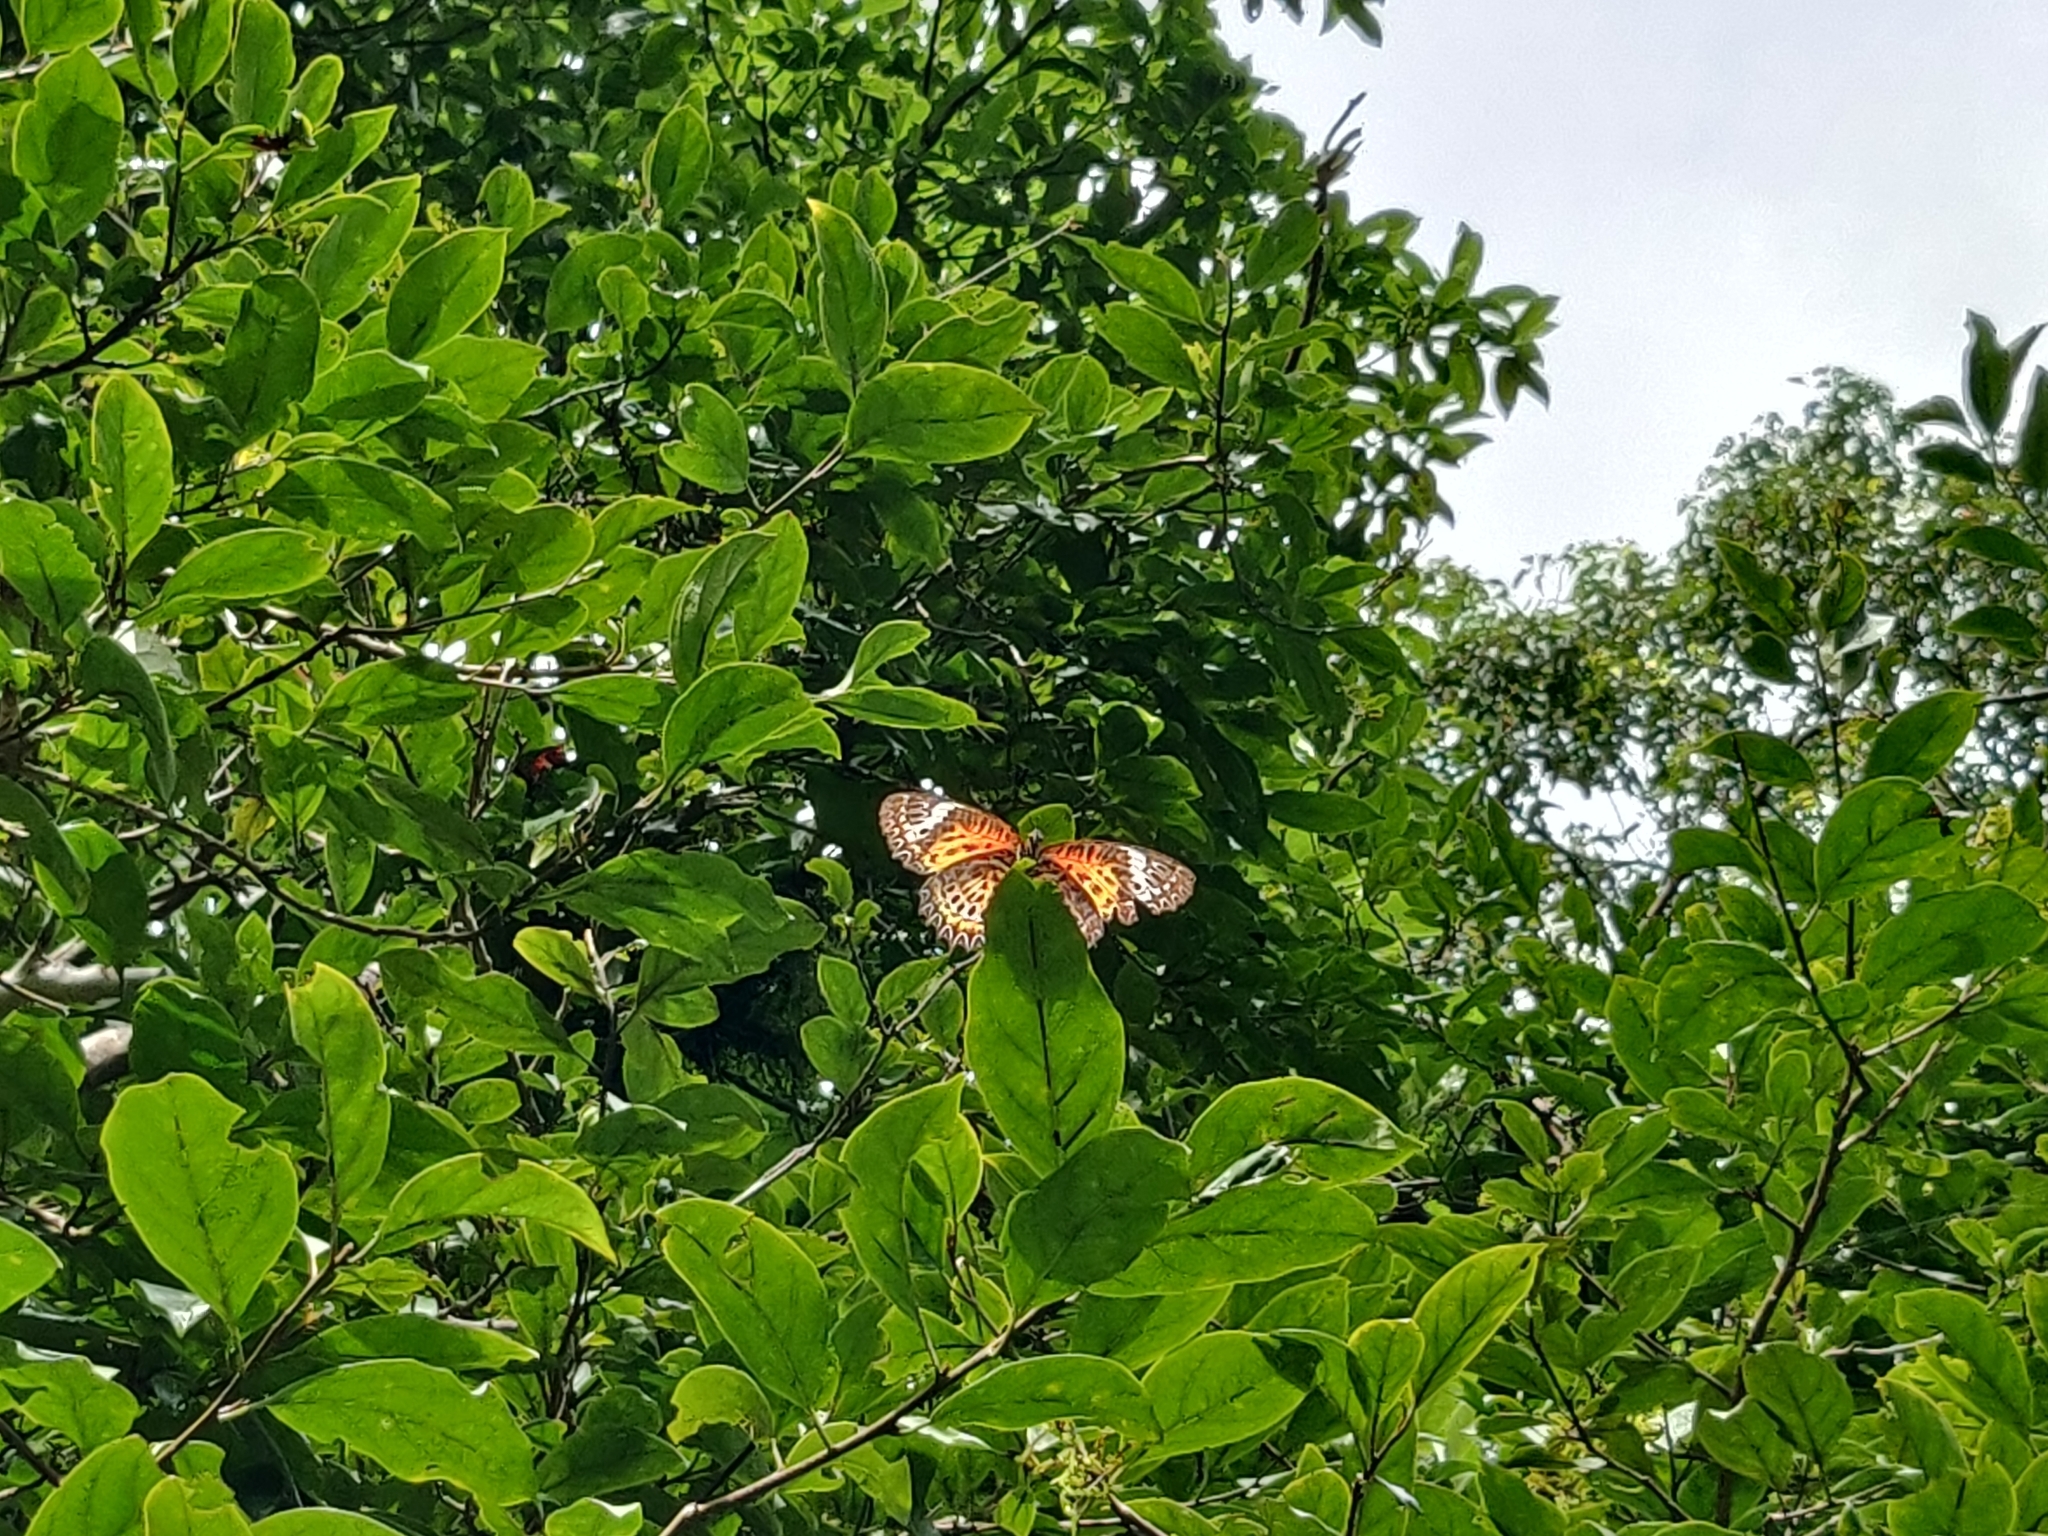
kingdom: Animalia
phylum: Arthropoda
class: Insecta
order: Lepidoptera
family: Nymphalidae
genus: Cethosia
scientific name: Cethosia
